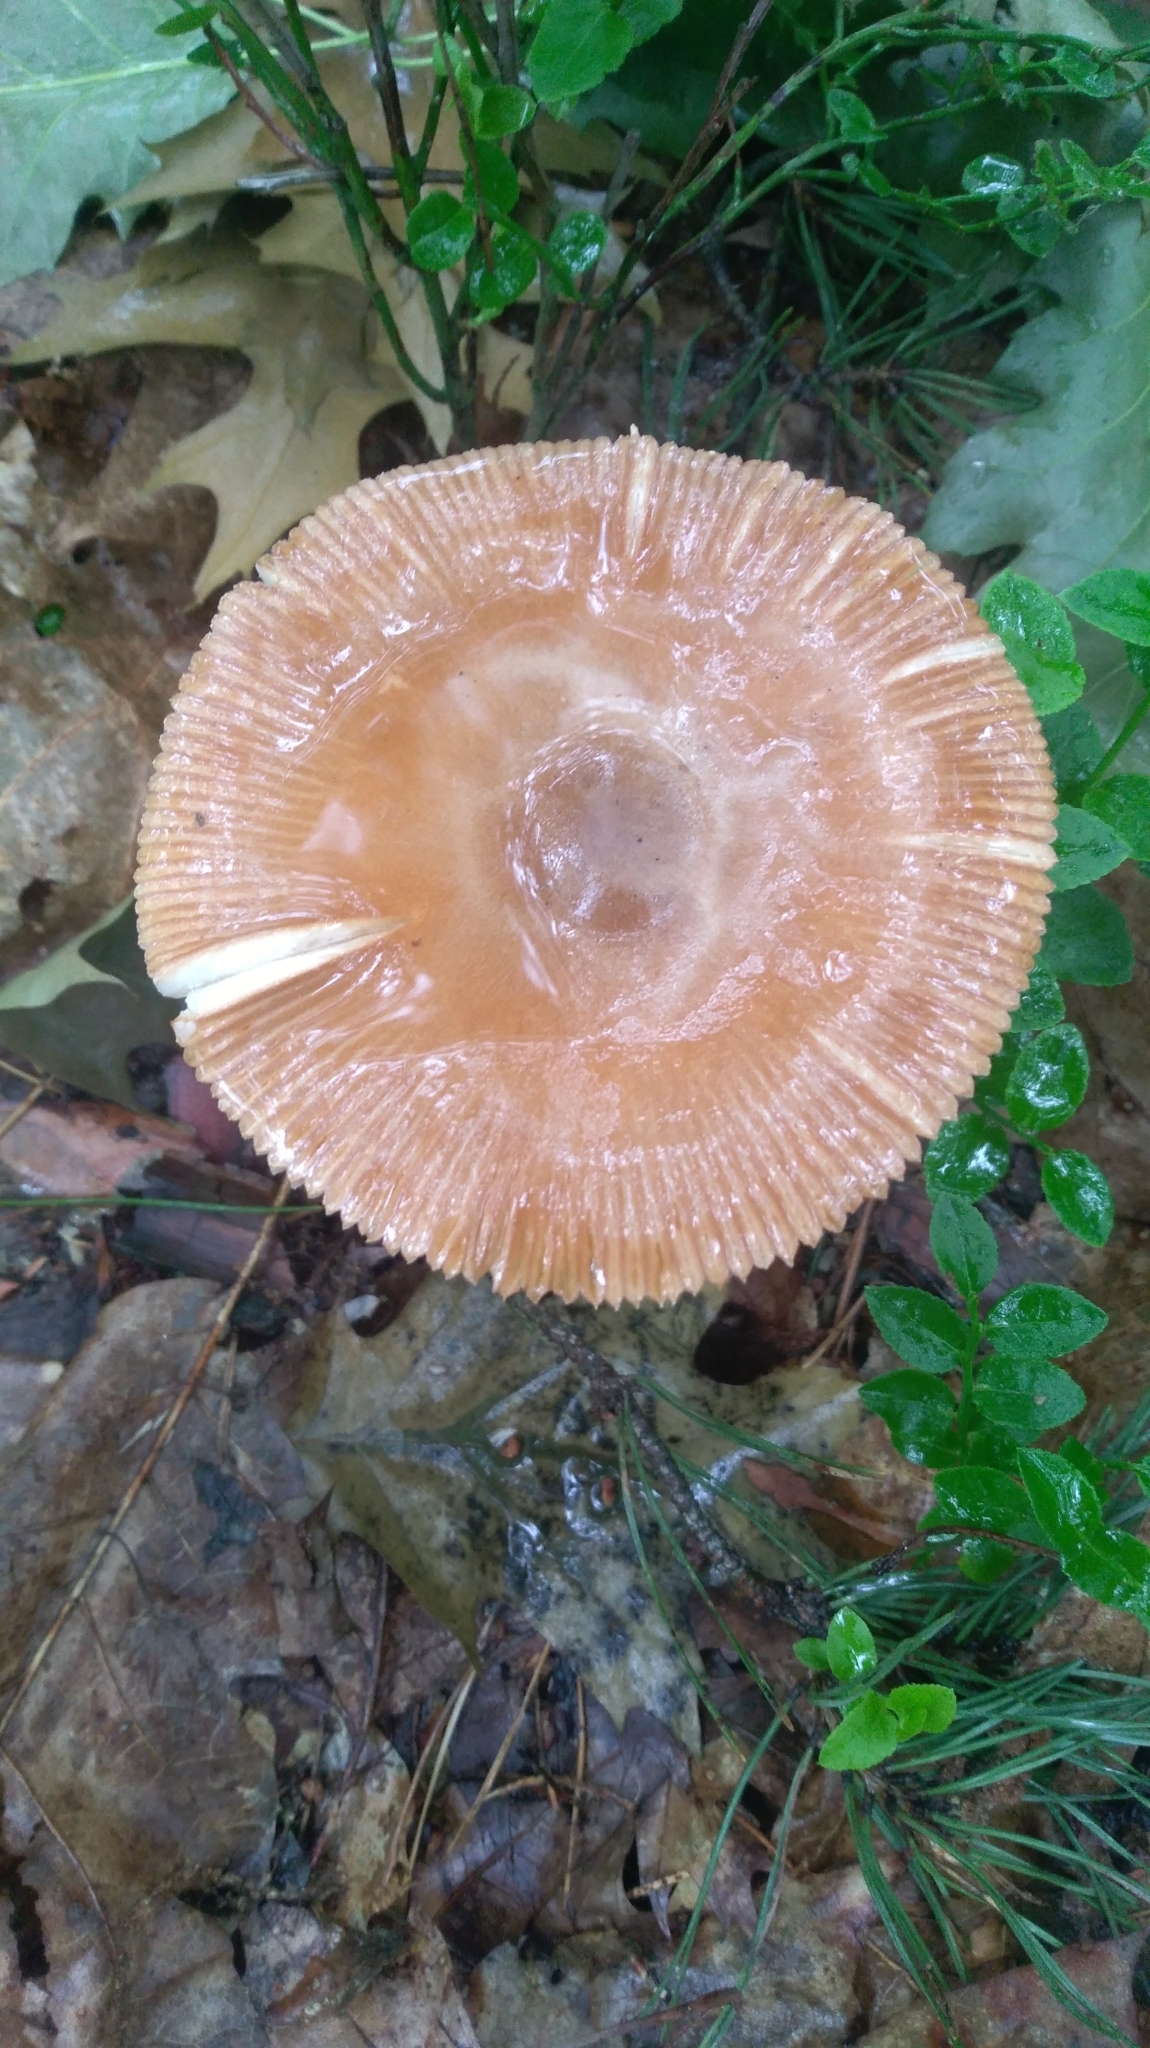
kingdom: Fungi
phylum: Basidiomycota
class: Agaricomycetes
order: Agaricales
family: Amanitaceae
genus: Amanita
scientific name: Amanita fulva
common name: Tawny grisette
